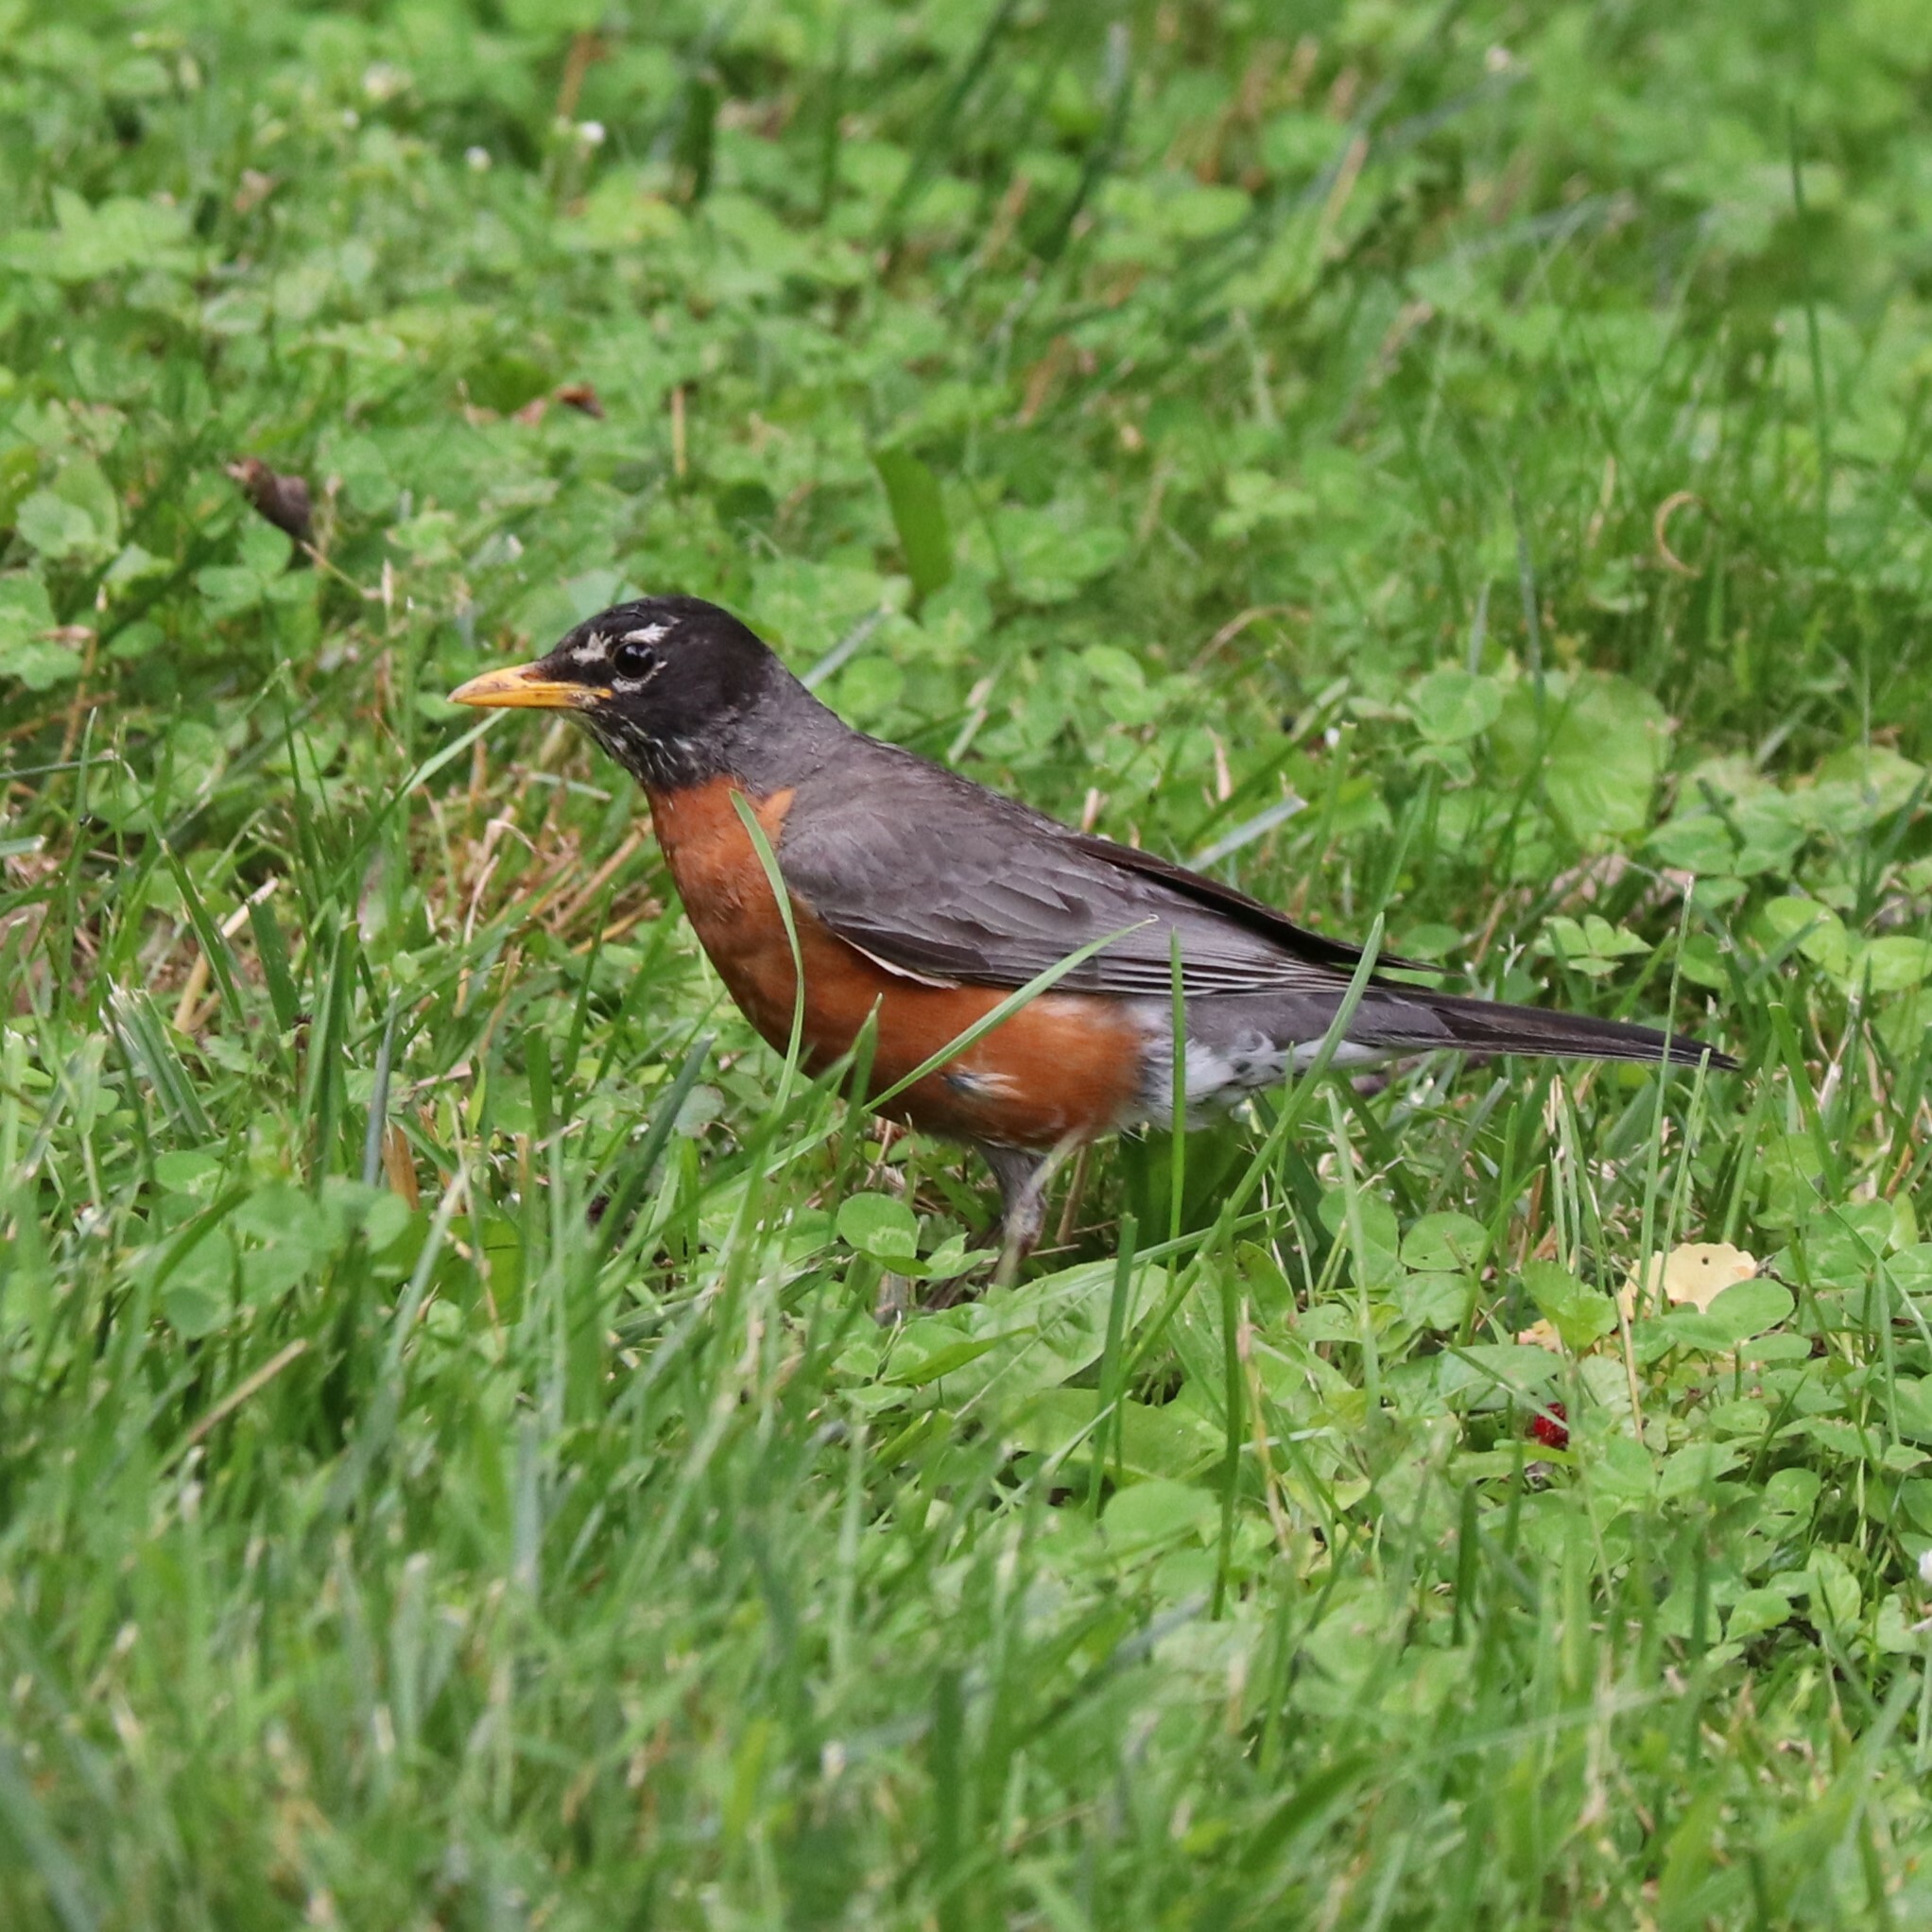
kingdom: Animalia
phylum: Chordata
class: Aves
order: Passeriformes
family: Turdidae
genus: Turdus
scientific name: Turdus migratorius
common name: American robin
